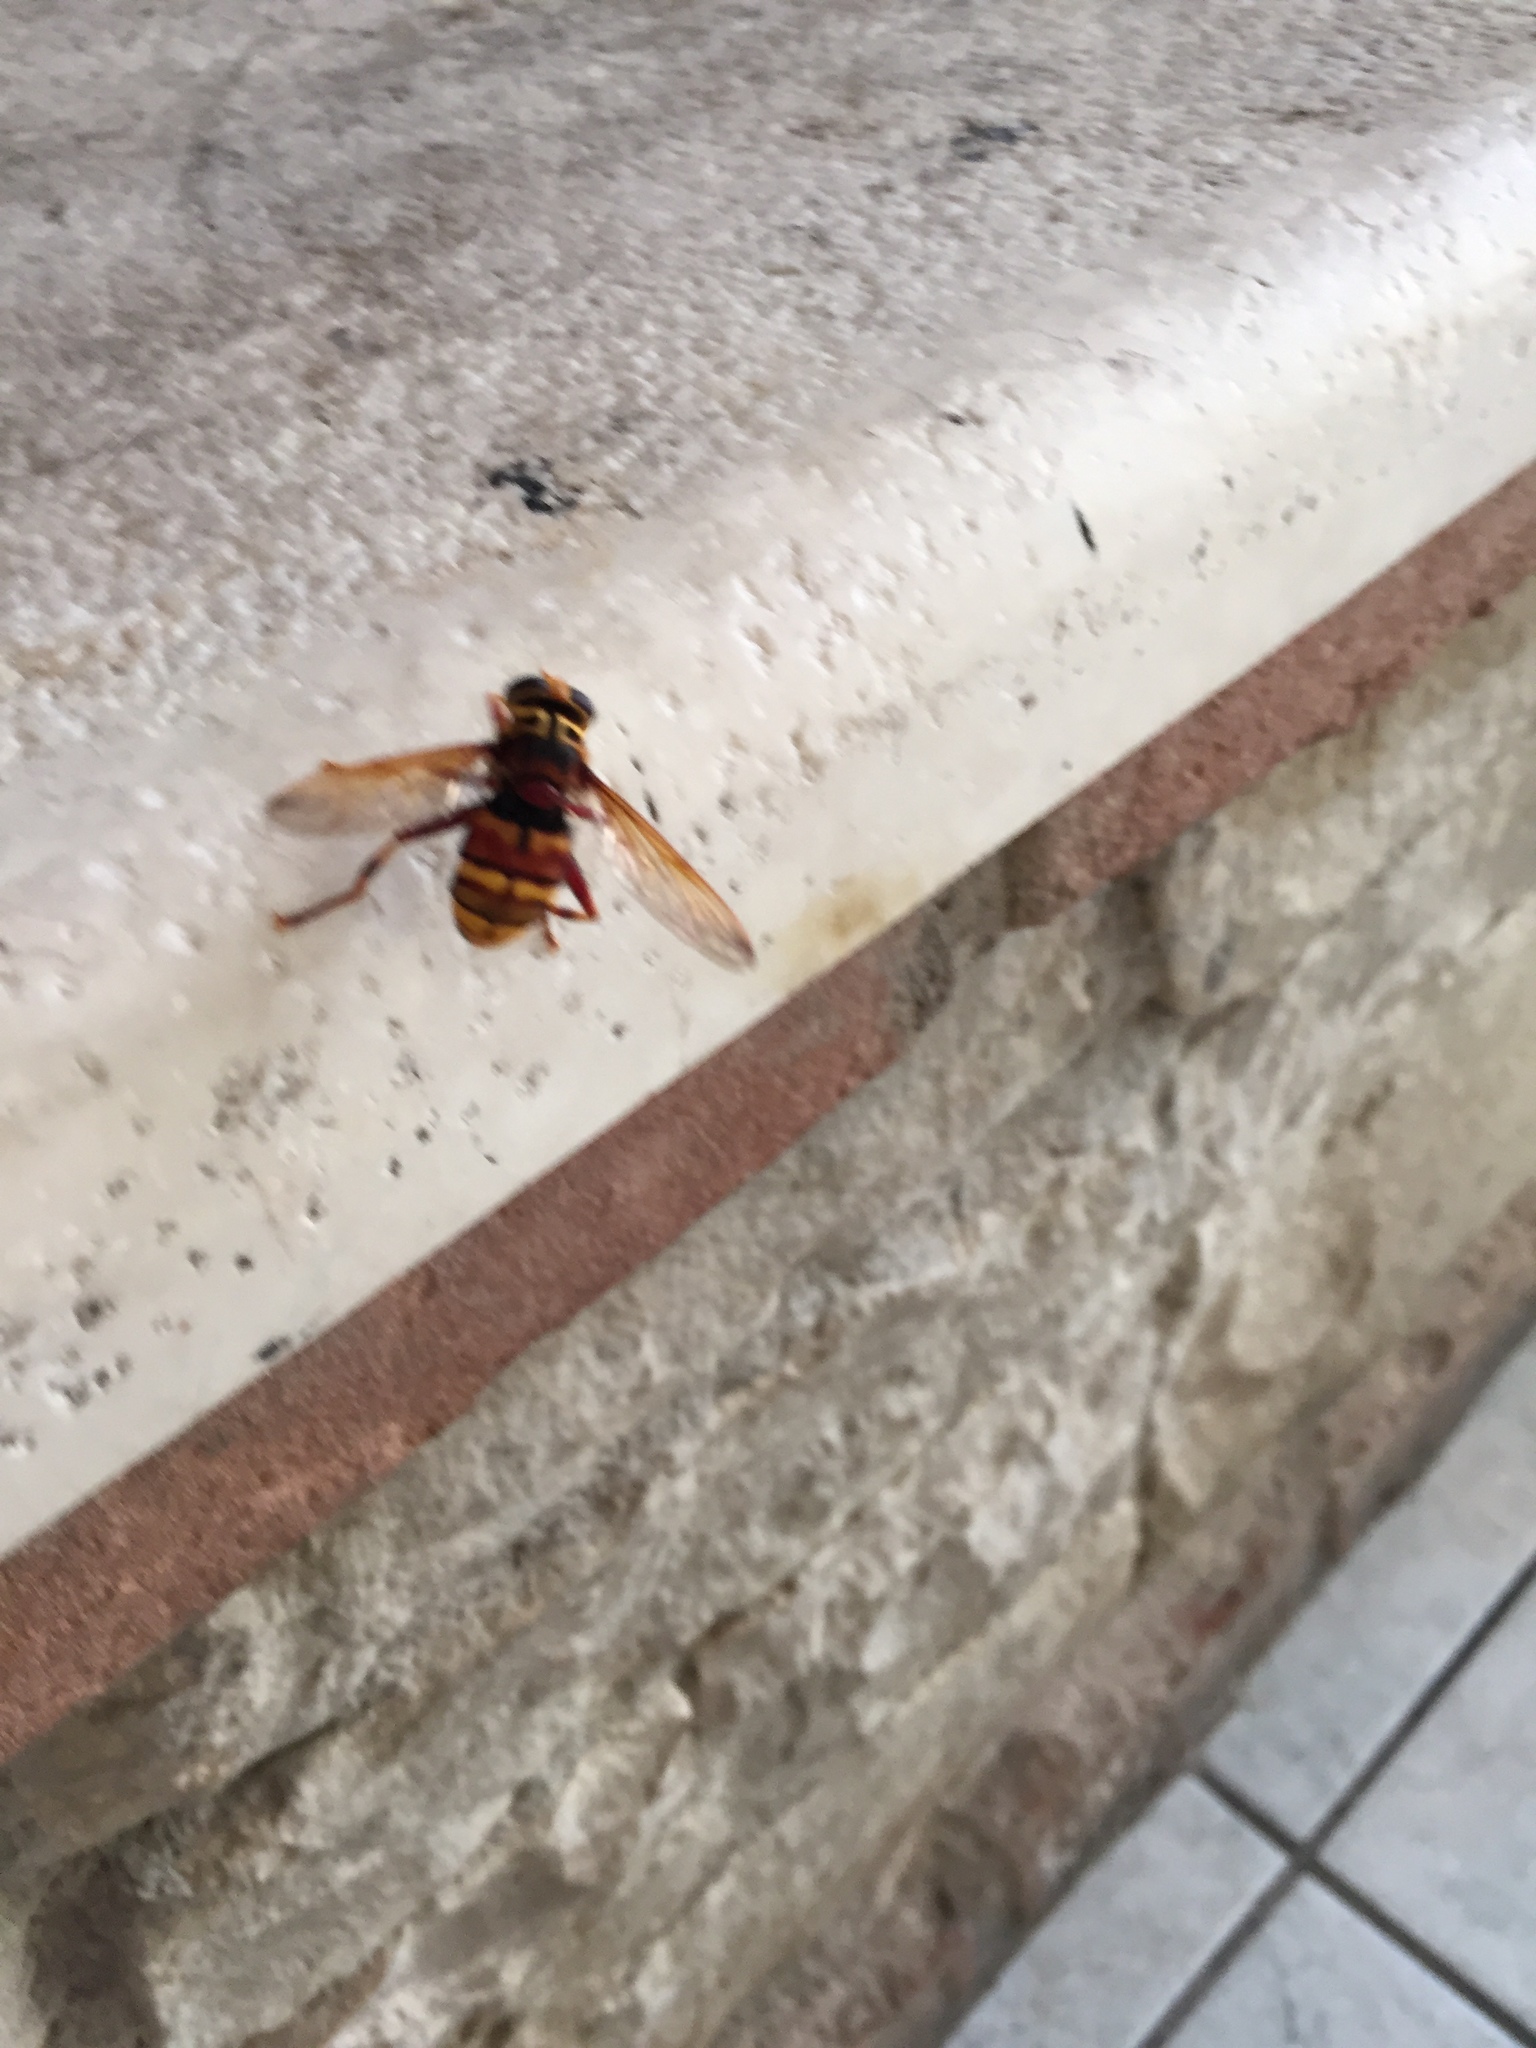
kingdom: Animalia
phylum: Arthropoda
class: Insecta
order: Diptera
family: Syrphidae
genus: Milesia
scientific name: Milesia crabroniformis
